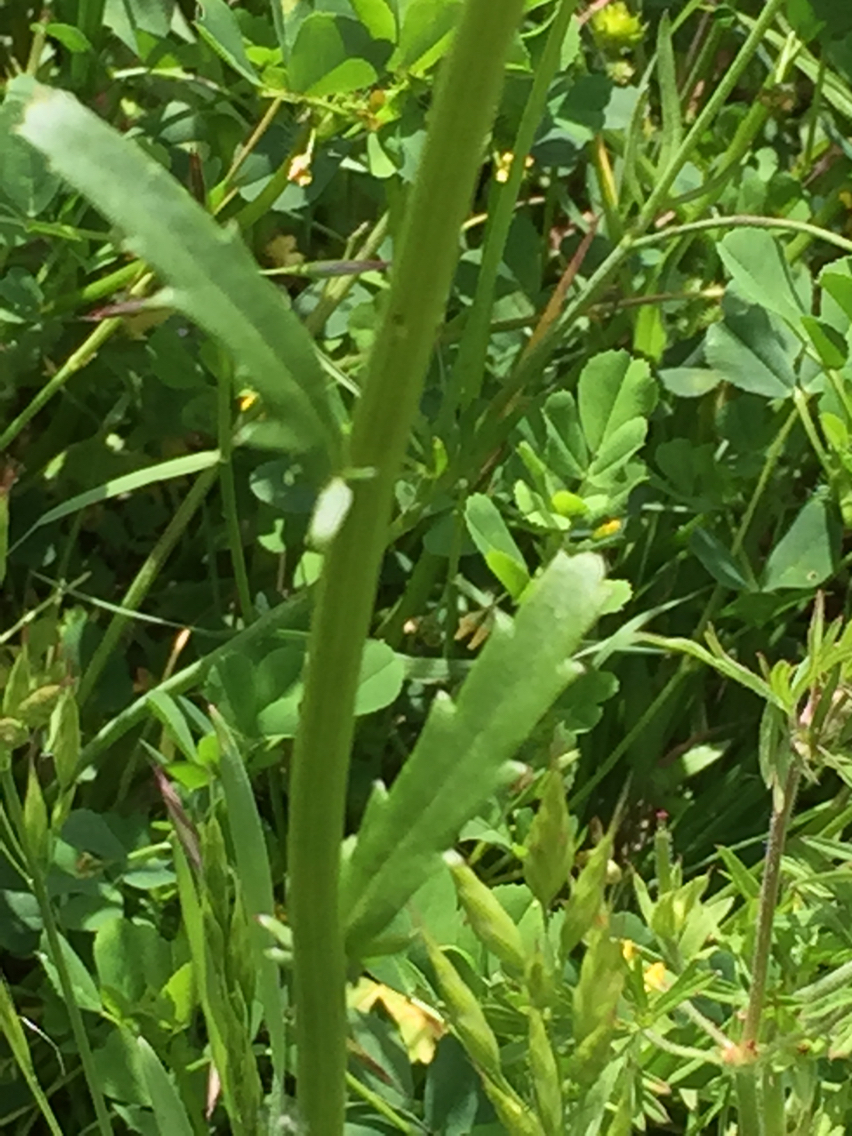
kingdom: Plantae
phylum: Tracheophyta
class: Magnoliopsida
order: Asterales
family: Asteraceae
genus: Leucanthemum
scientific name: Leucanthemum vulgare
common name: Oxeye daisy
